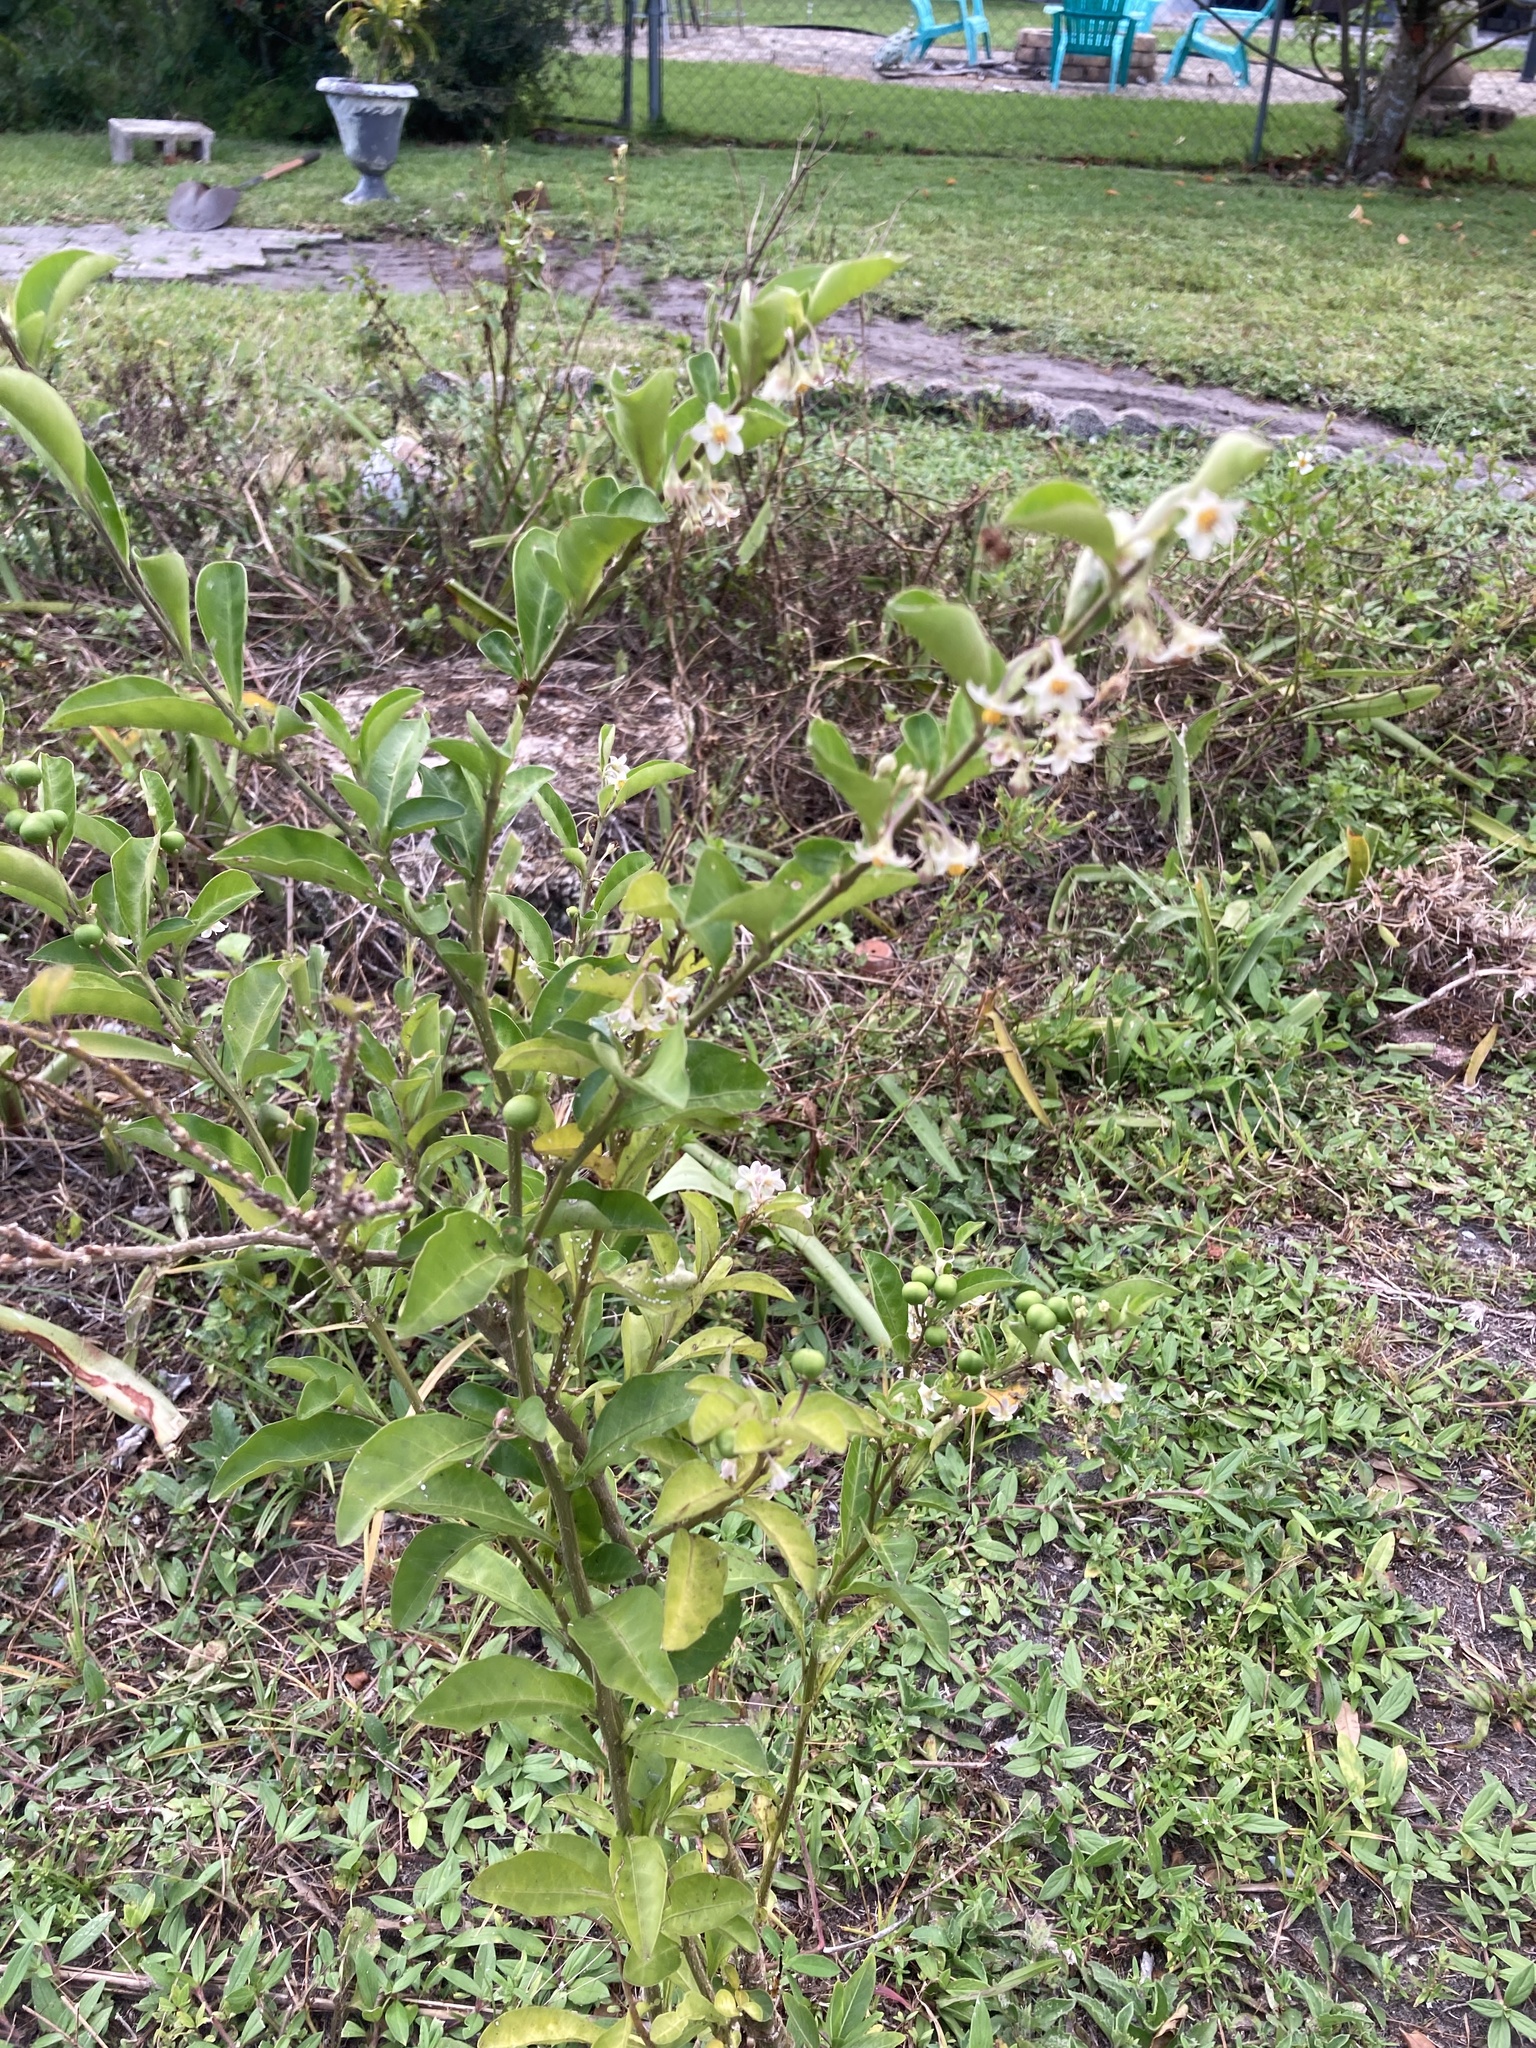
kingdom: Plantae
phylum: Tracheophyta
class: Magnoliopsida
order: Solanales
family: Solanaceae
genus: Solanum
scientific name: Solanum diphyllum
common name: Twoleaf nightshade
